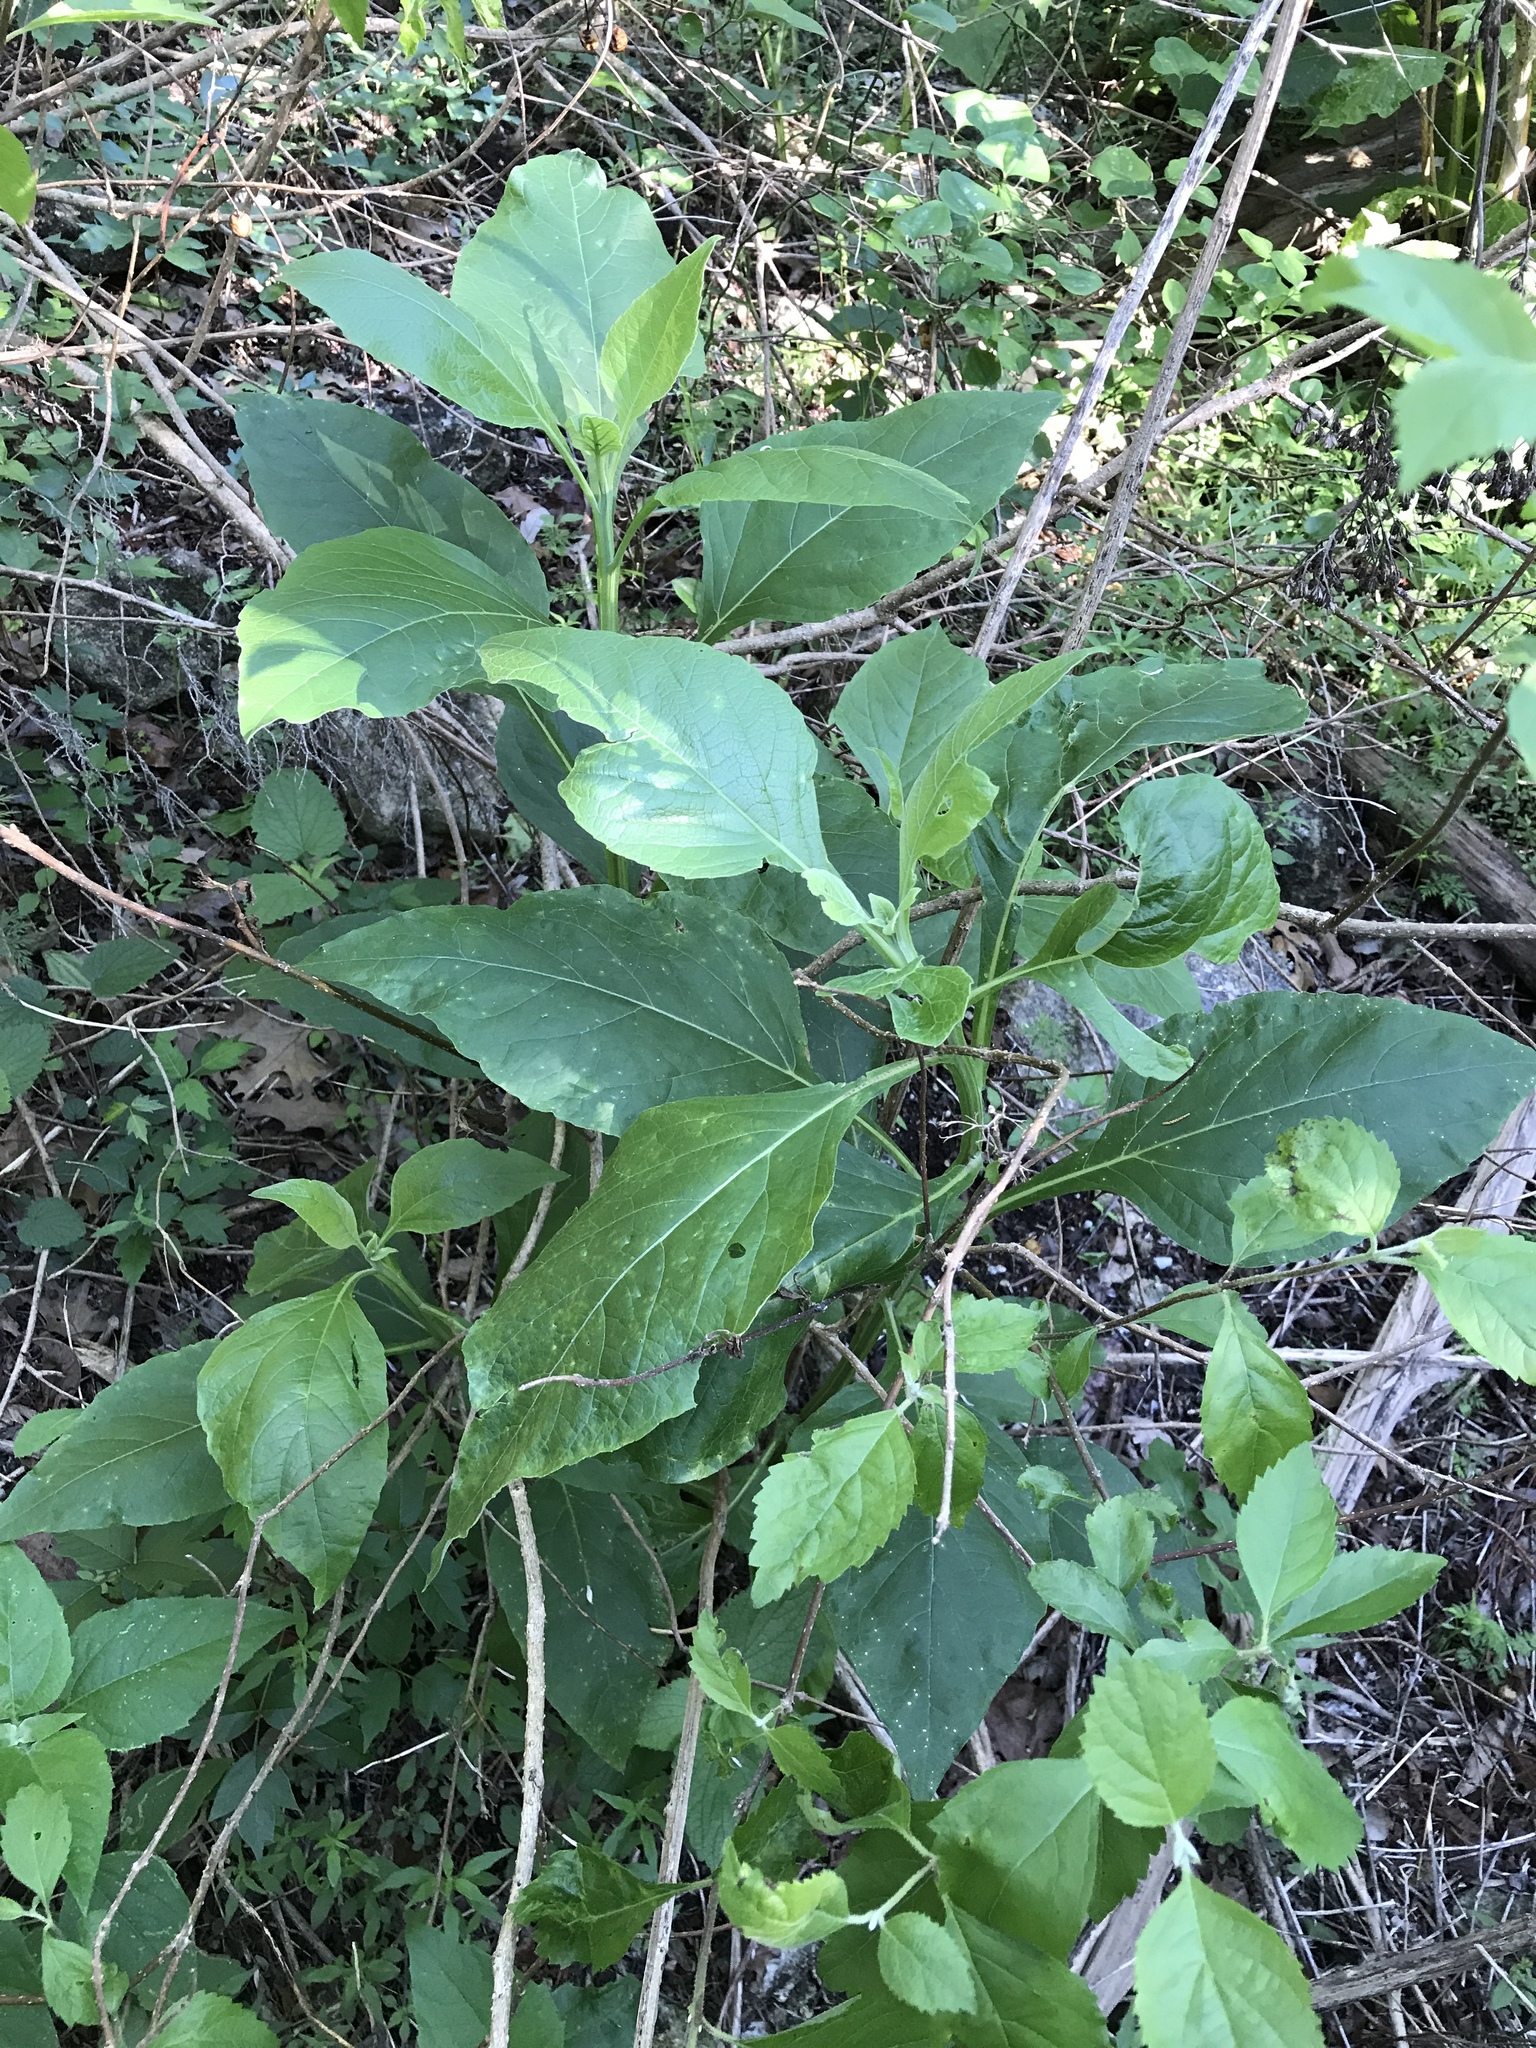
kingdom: Plantae
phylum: Tracheophyta
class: Magnoliopsida
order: Asterales
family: Asteraceae
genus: Verbesina
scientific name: Verbesina virginica
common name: Frostweed
